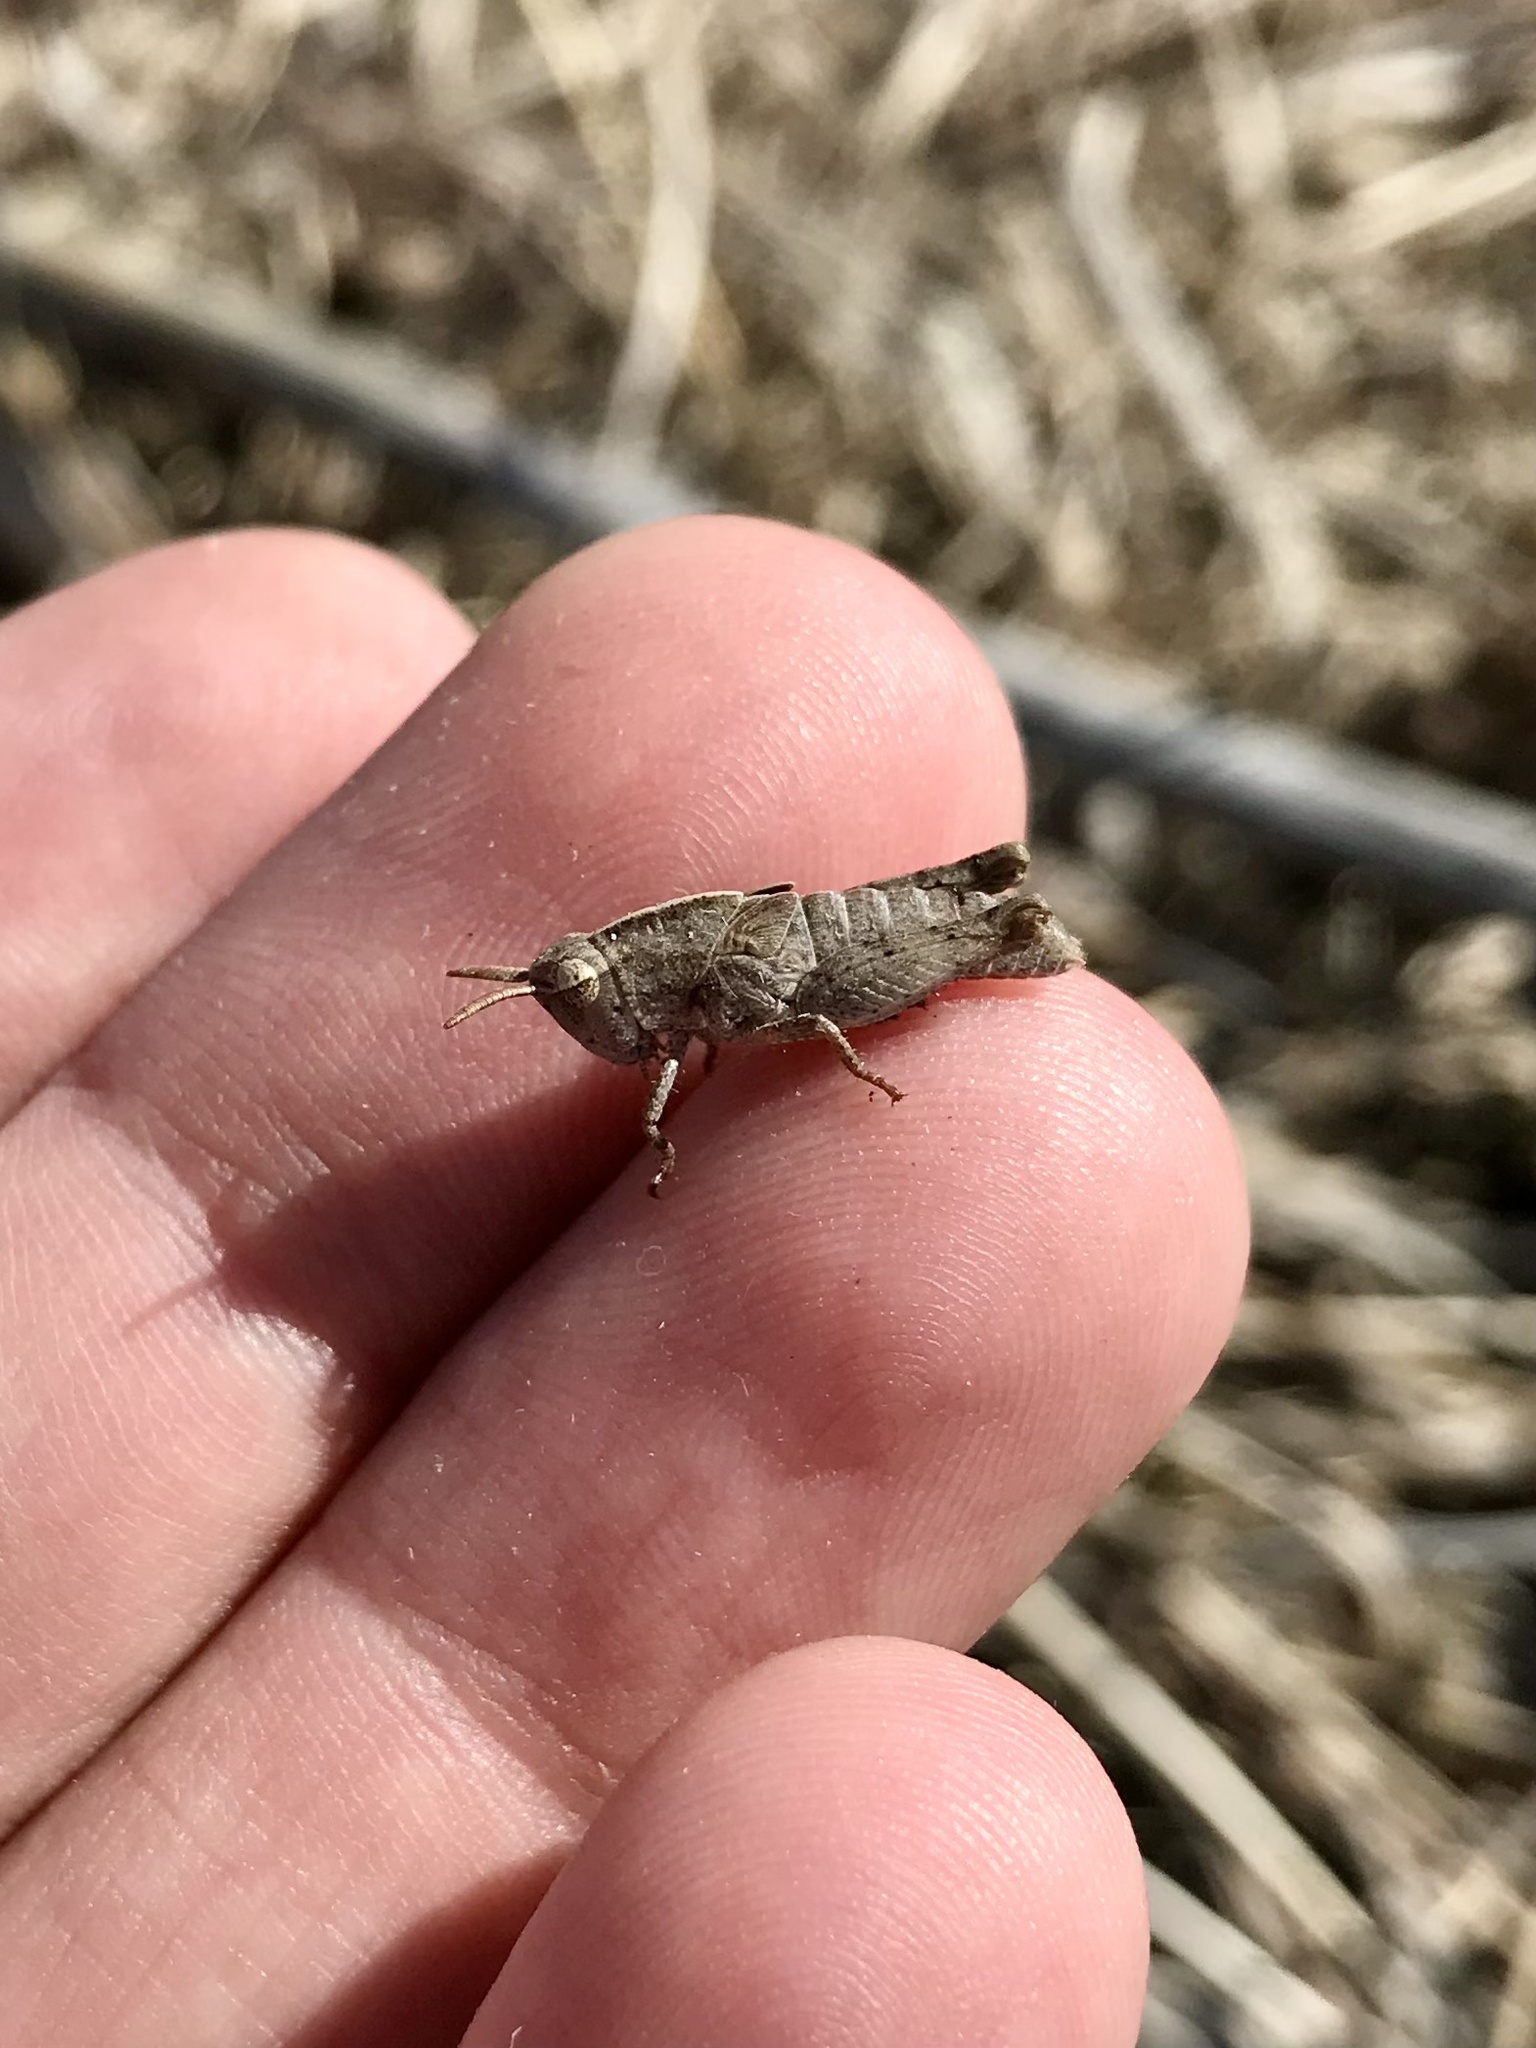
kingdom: Animalia
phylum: Arthropoda
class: Insecta
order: Orthoptera
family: Acrididae
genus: Chortophaga
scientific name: Chortophaga viridifasciata
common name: Green-striped grasshopper
